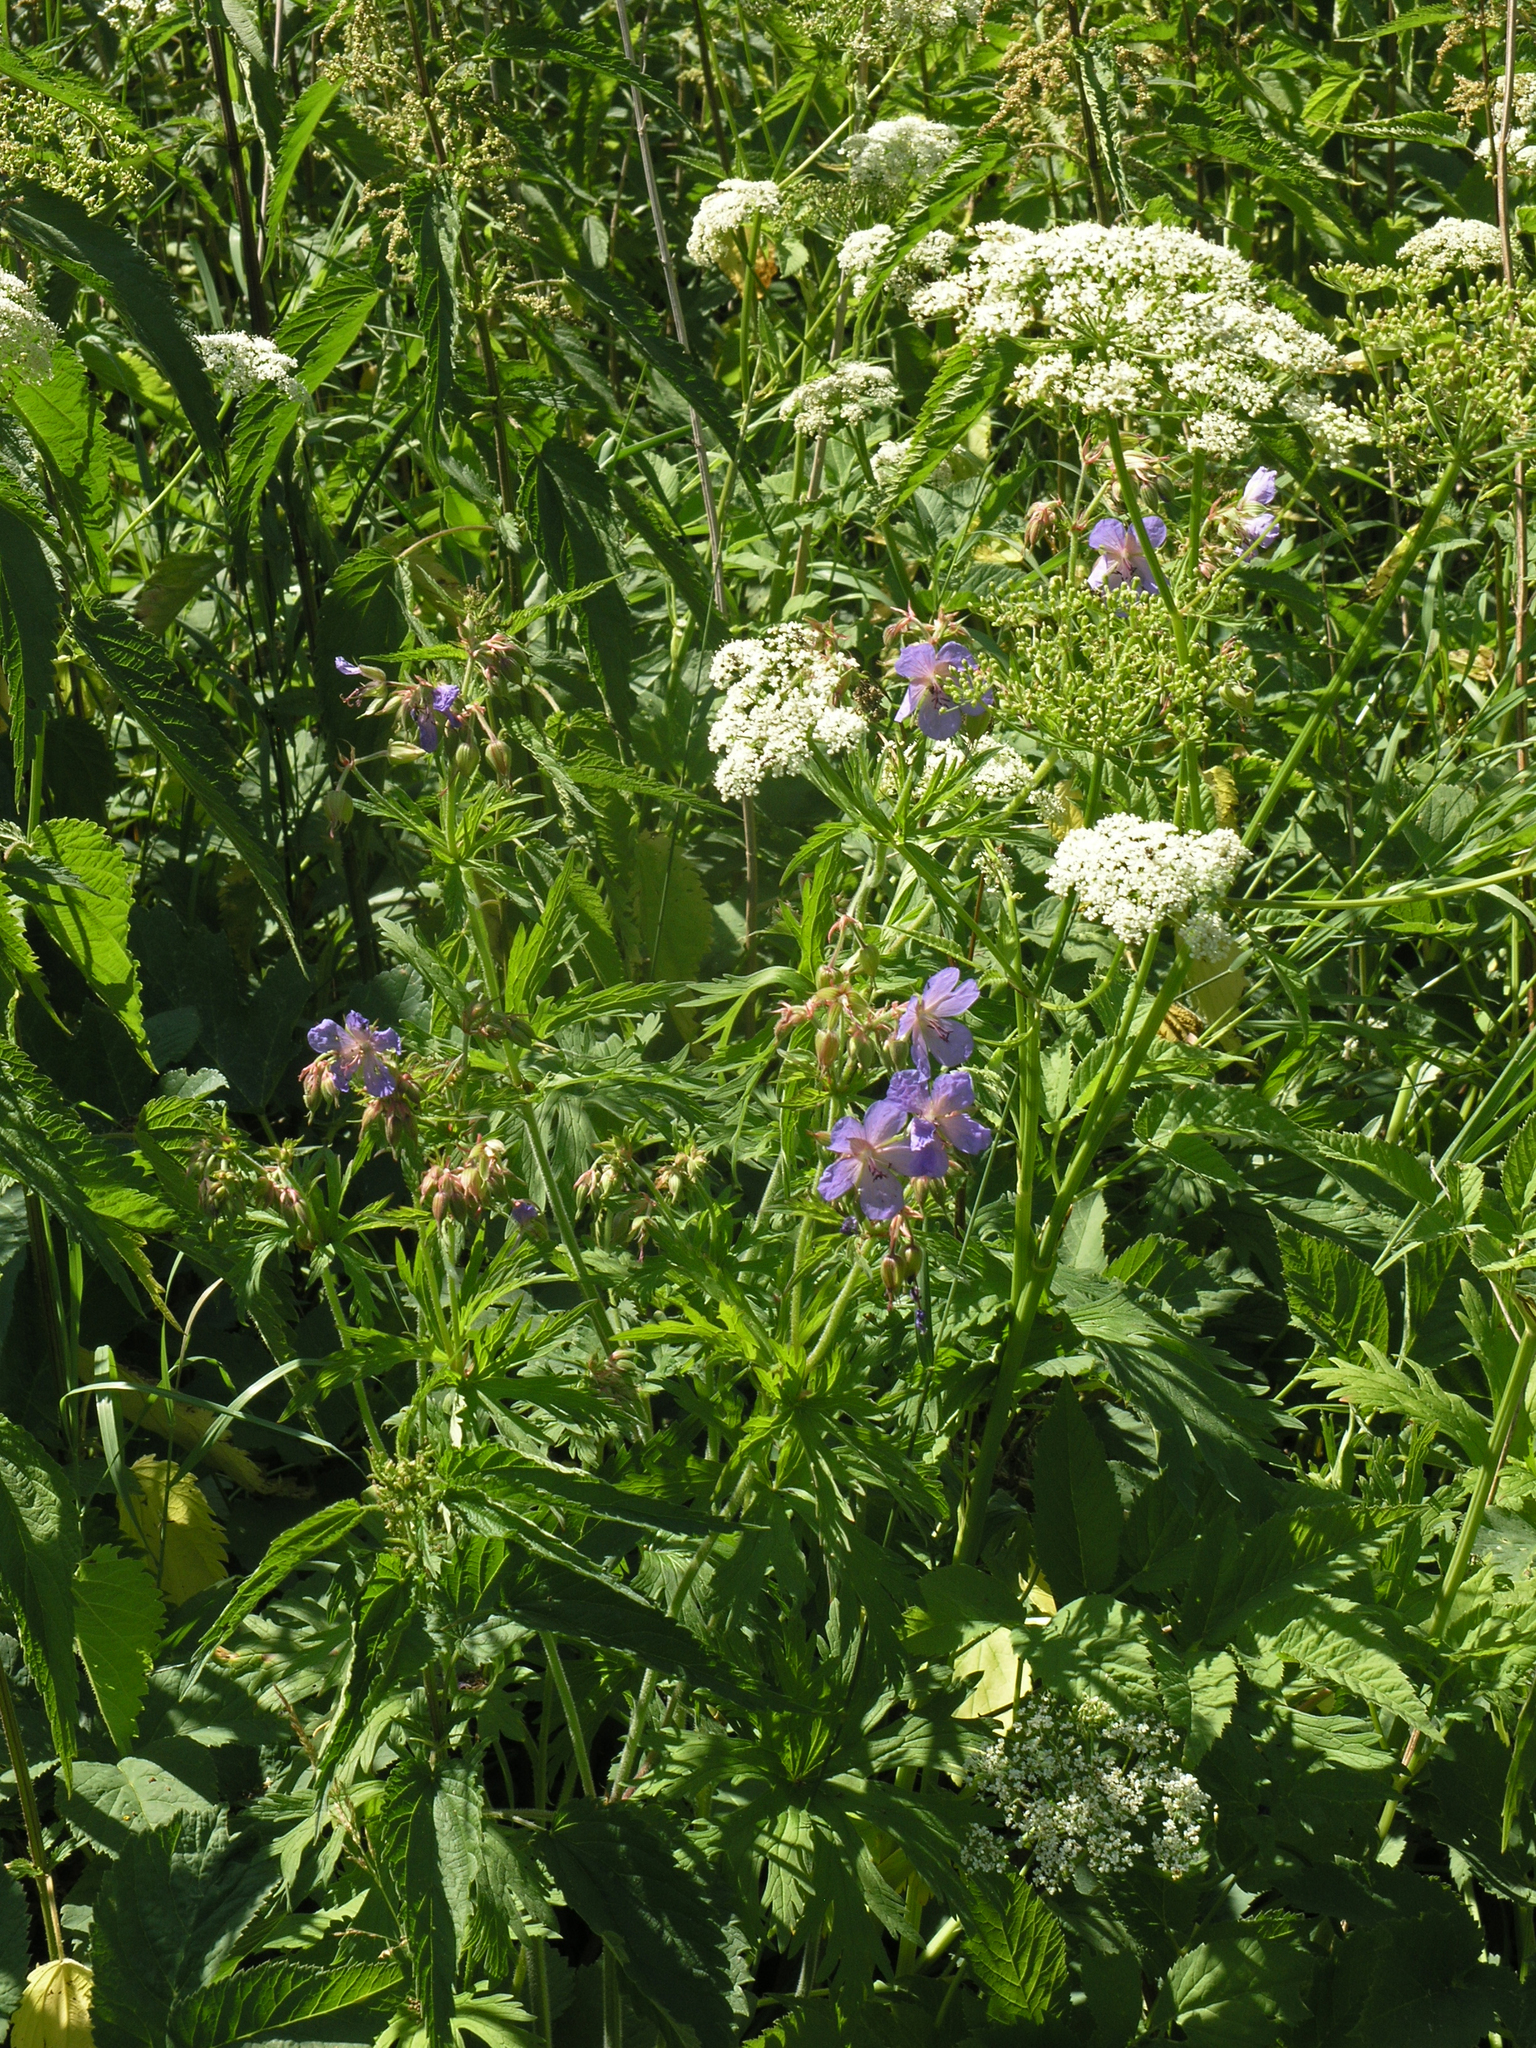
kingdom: Plantae
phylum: Tracheophyta
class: Magnoliopsida
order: Apiales
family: Apiaceae
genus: Aegopodium
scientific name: Aegopodium podagraria
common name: Ground-elder
